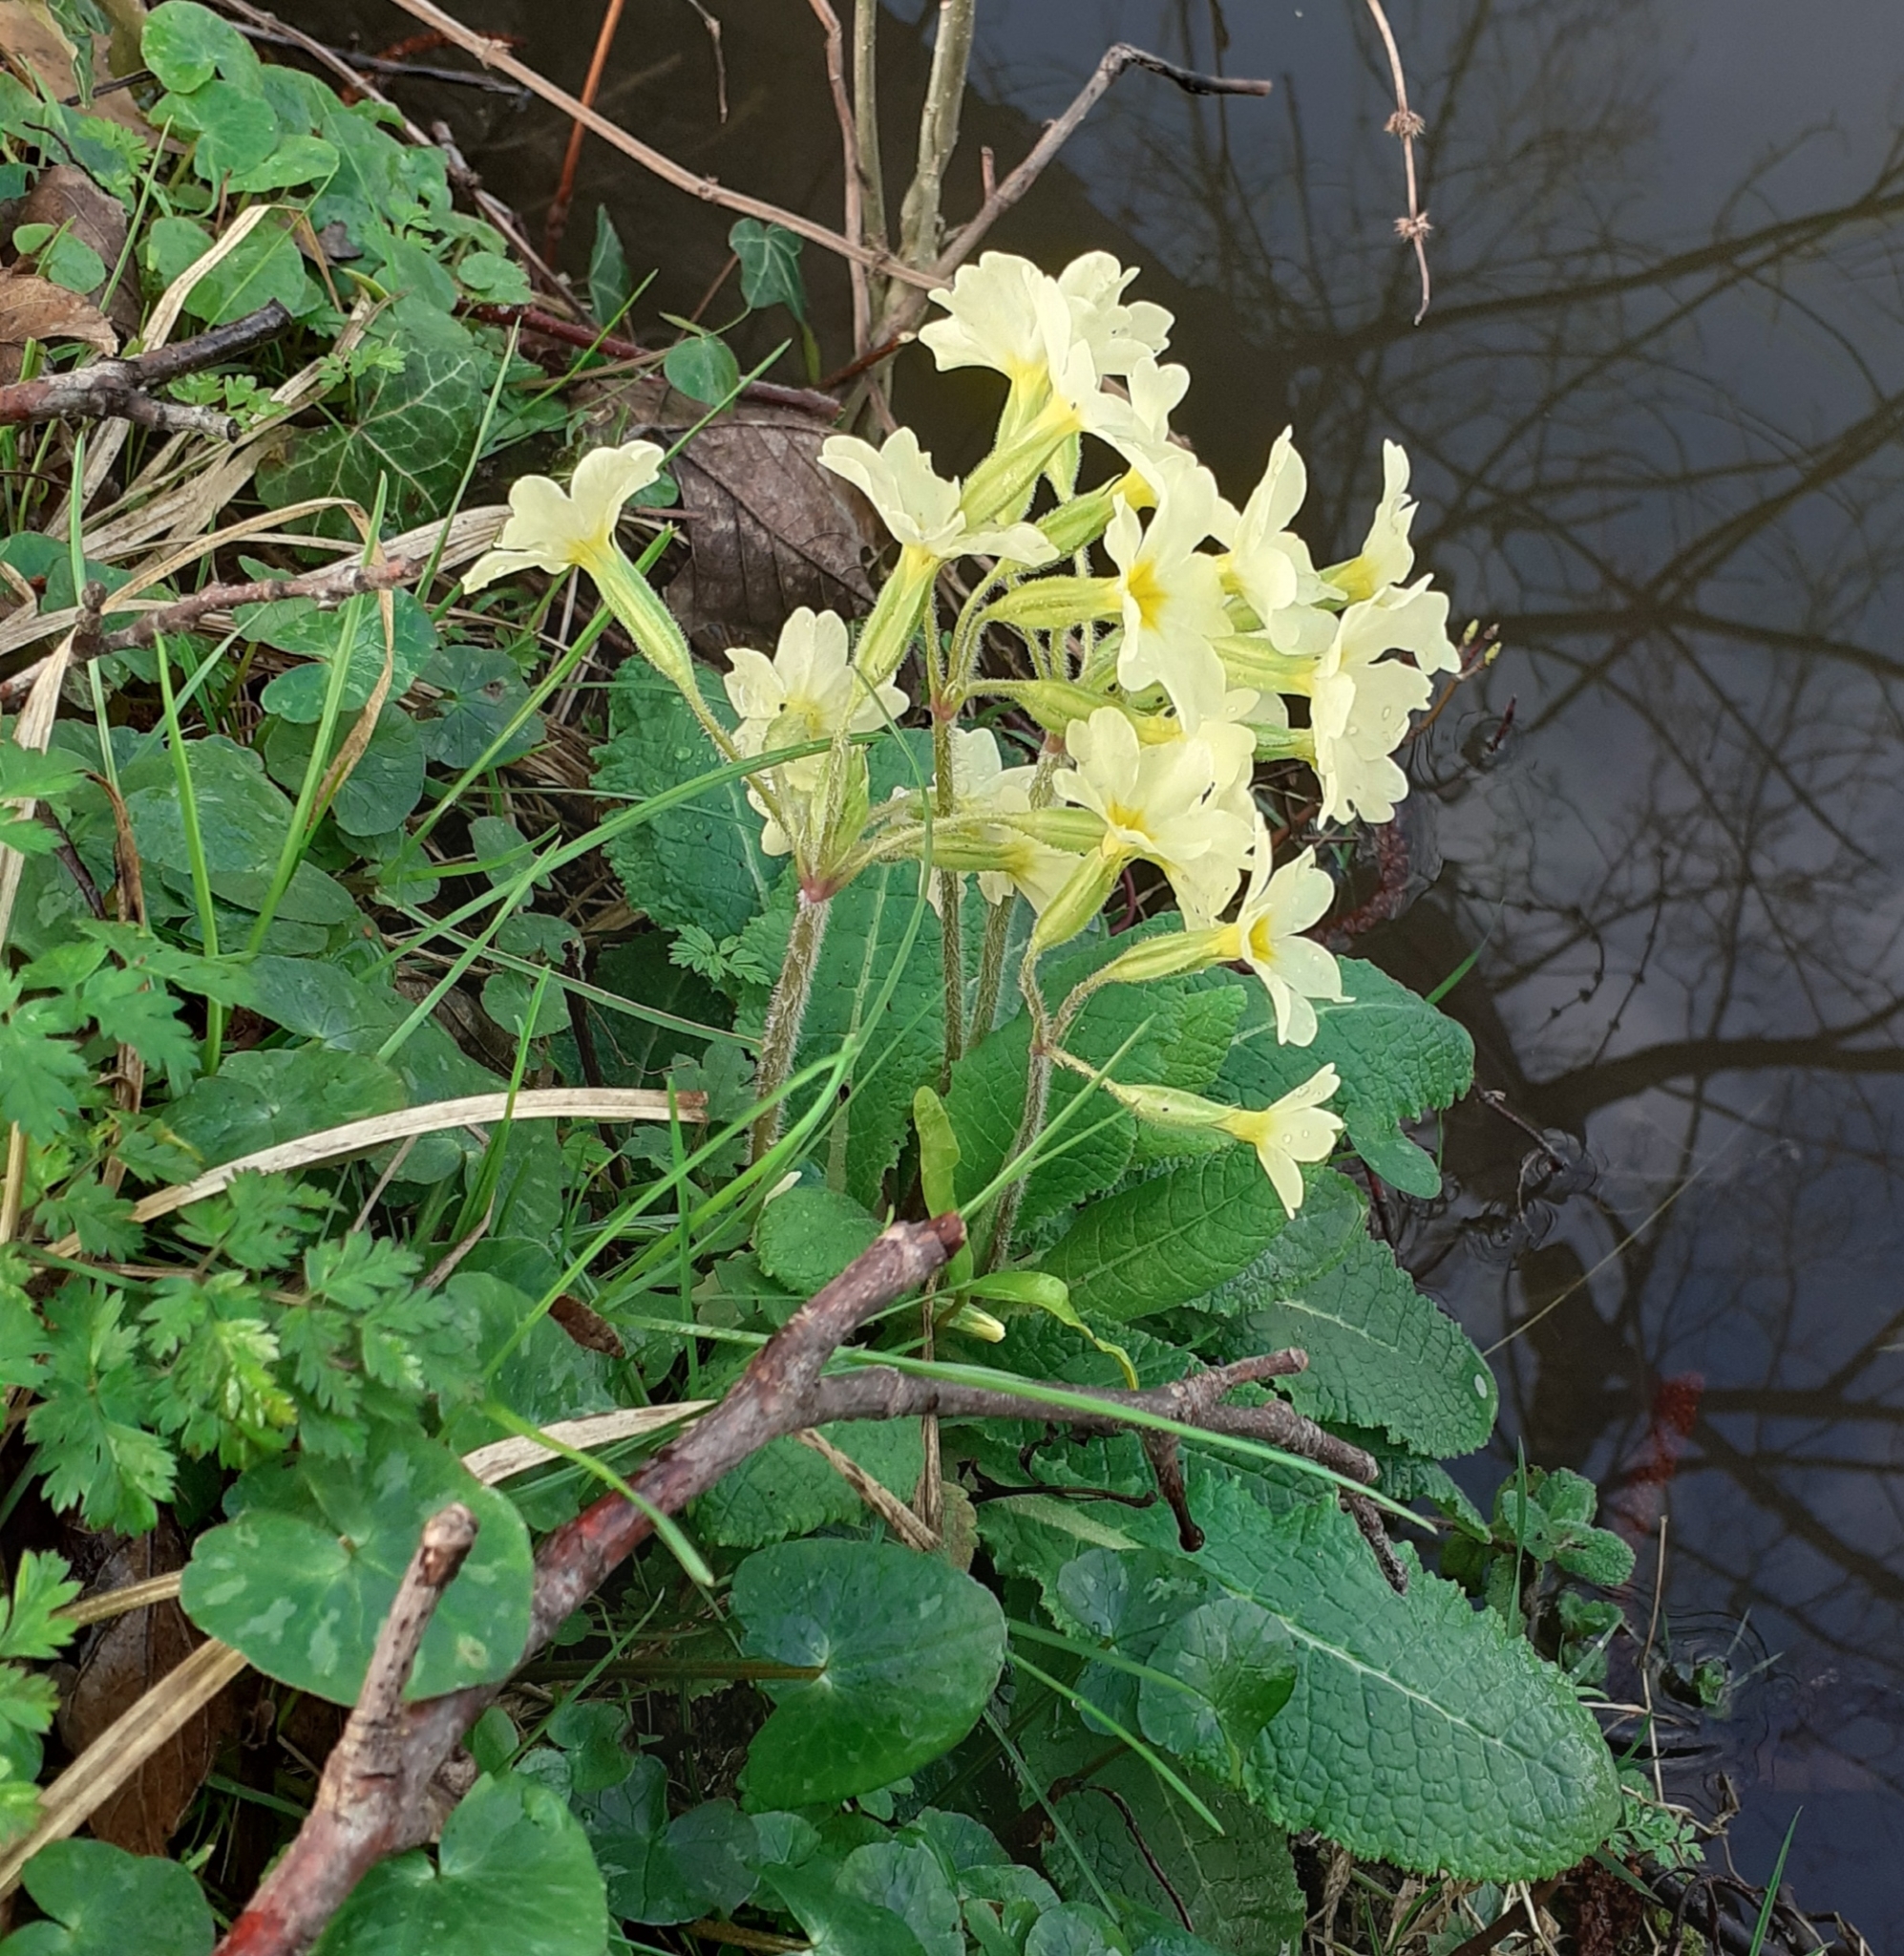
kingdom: Plantae
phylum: Tracheophyta
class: Magnoliopsida
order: Ericales
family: Primulaceae
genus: Primula
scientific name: Primula elatior
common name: Oxlip
